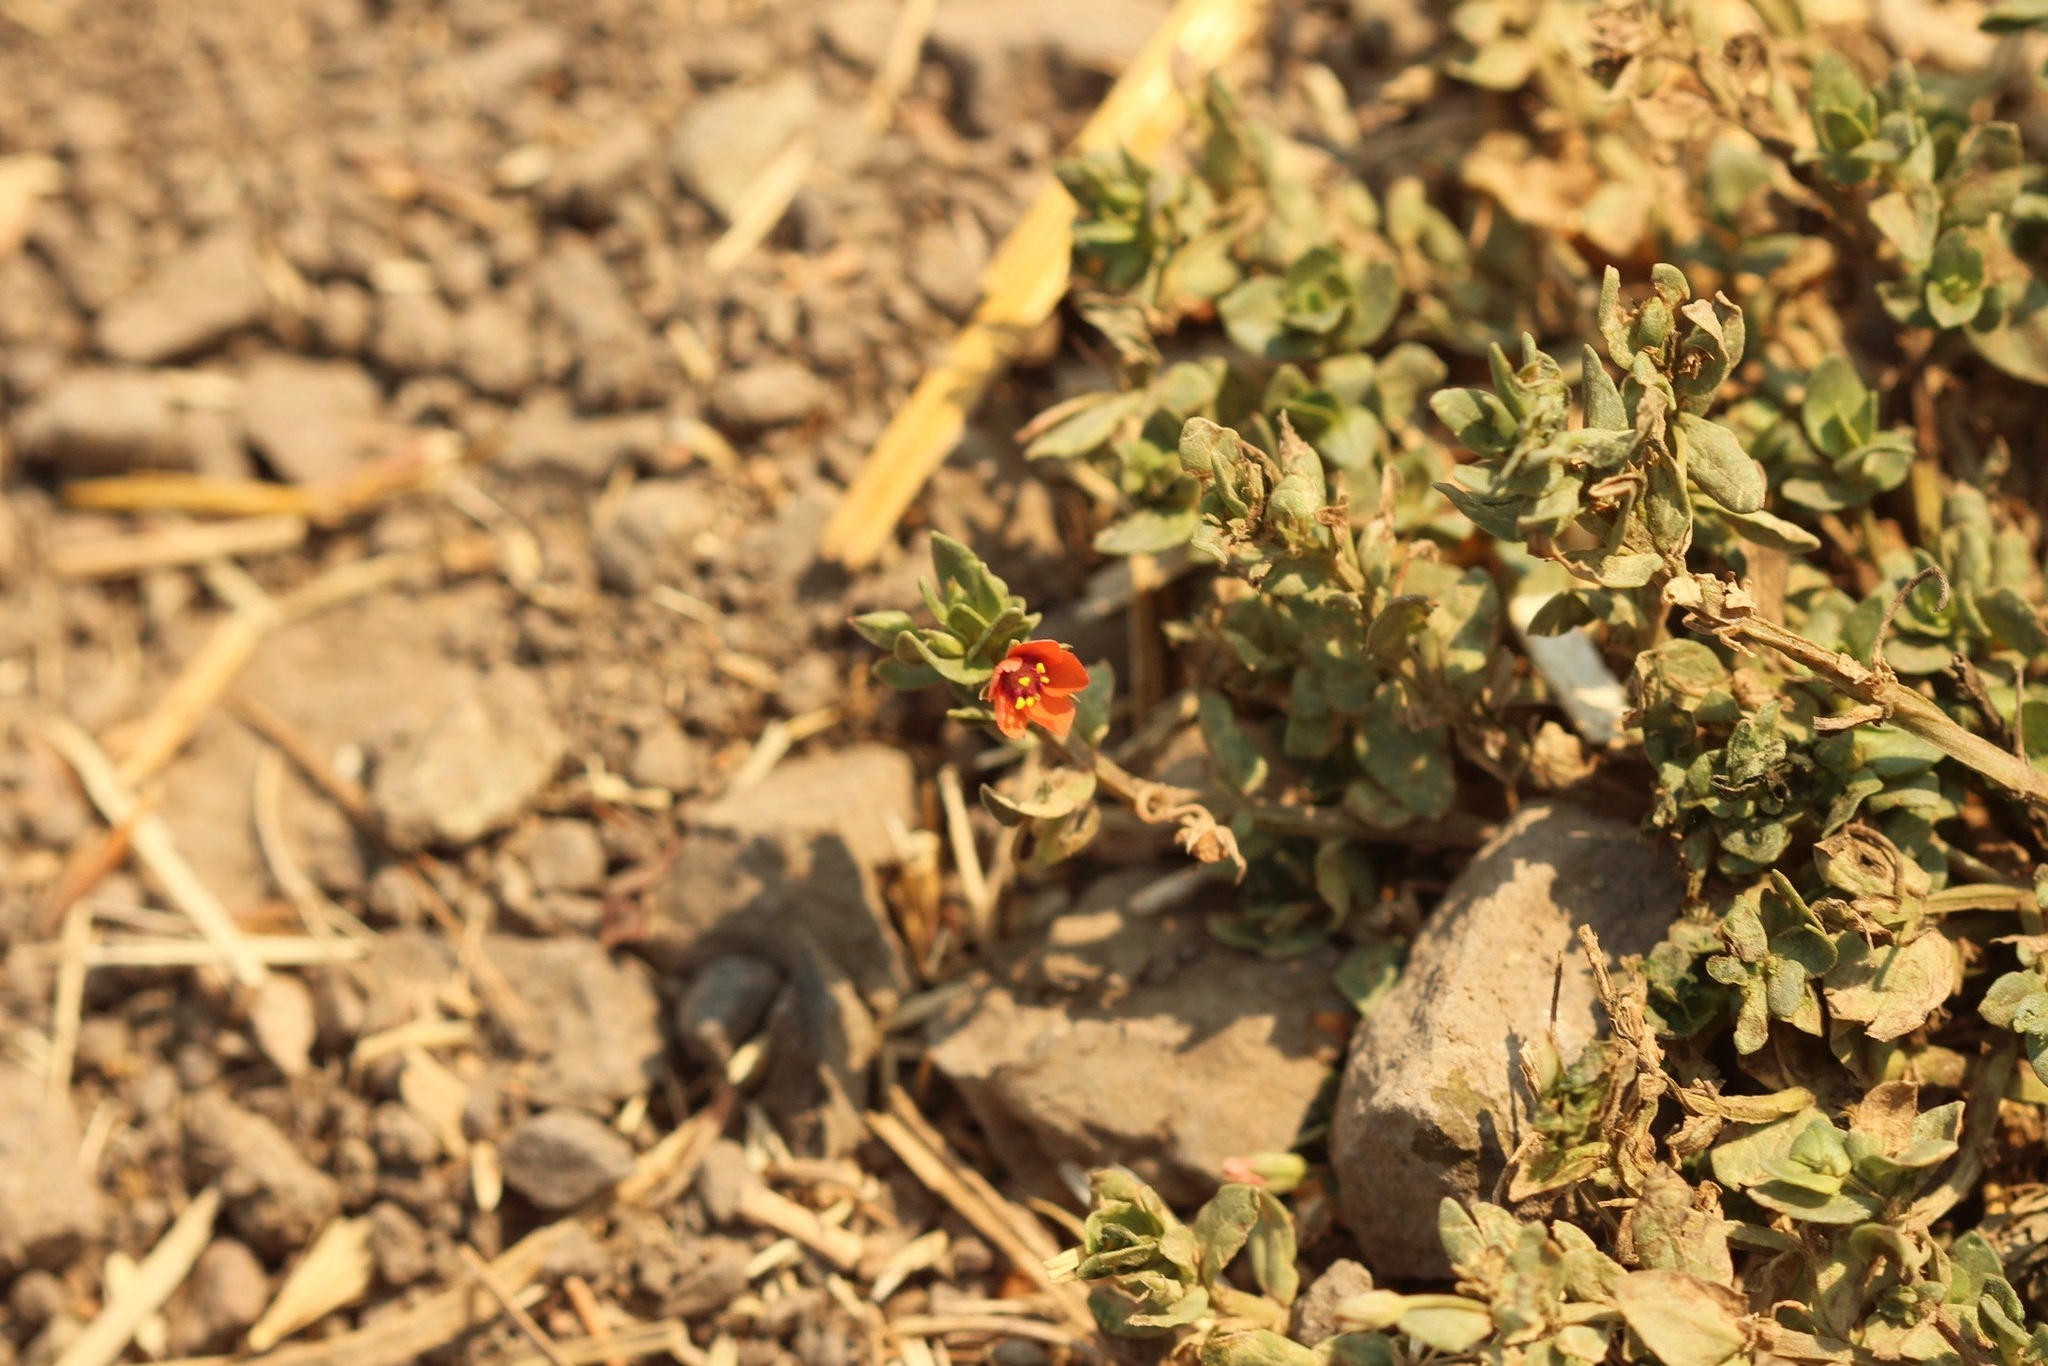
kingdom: Plantae
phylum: Tracheophyta
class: Magnoliopsida
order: Ericales
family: Primulaceae
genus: Lysimachia
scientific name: Lysimachia arvensis
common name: Scarlet pimpernel
